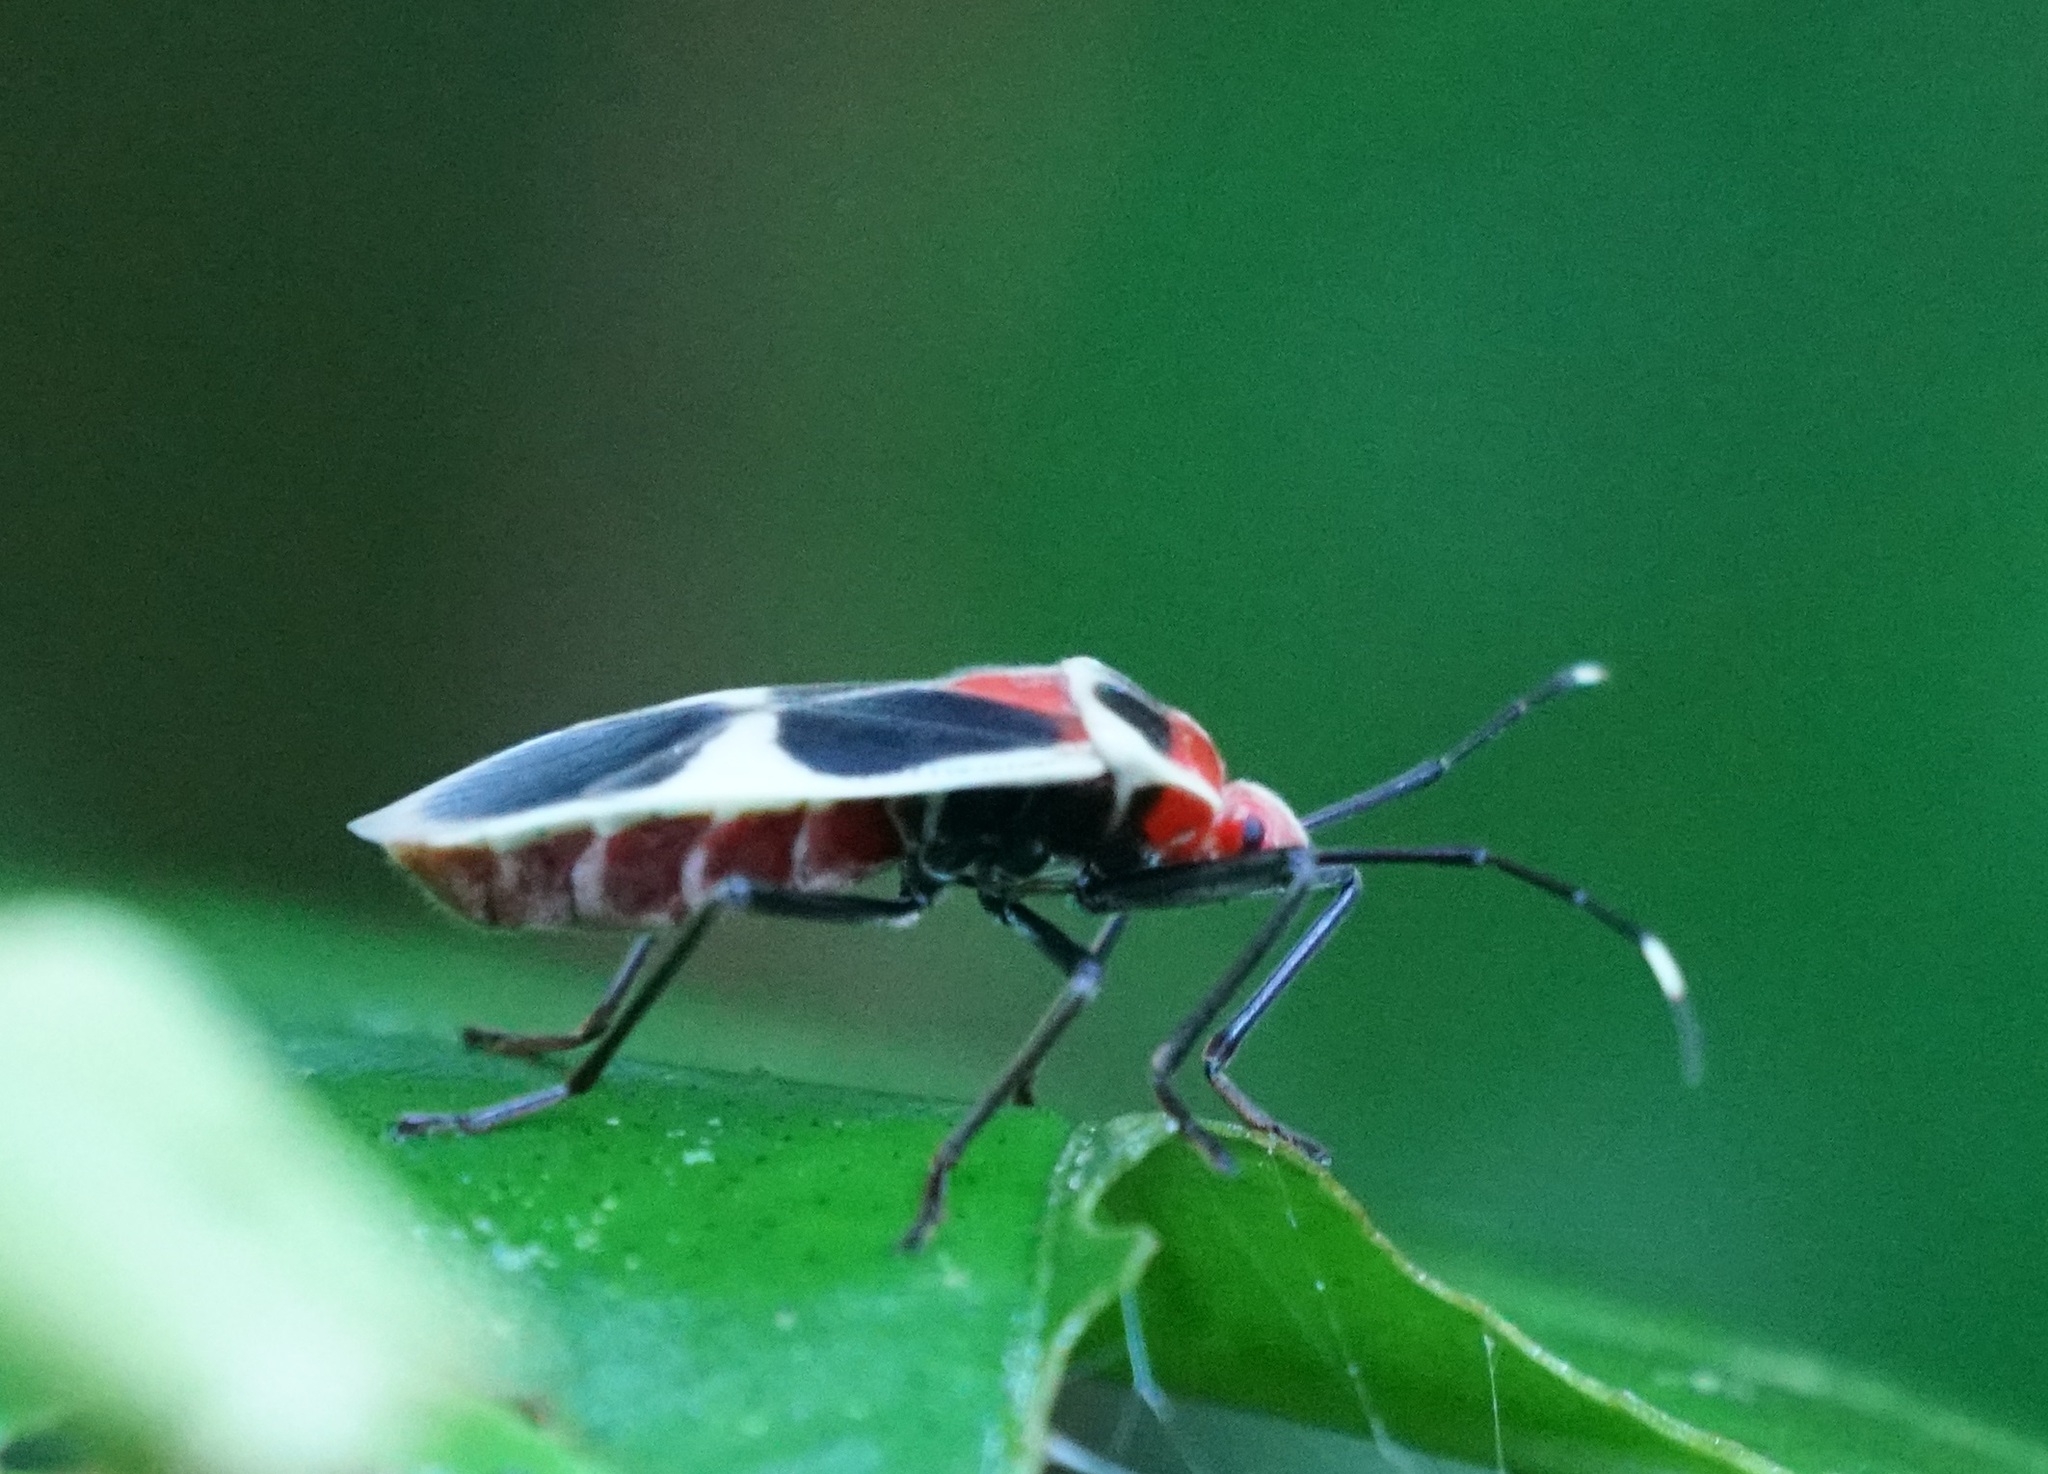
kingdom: Animalia
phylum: Arthropoda
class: Insecta
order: Hemiptera
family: Largidae
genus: Physopelta
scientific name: Physopelta albofasciata
